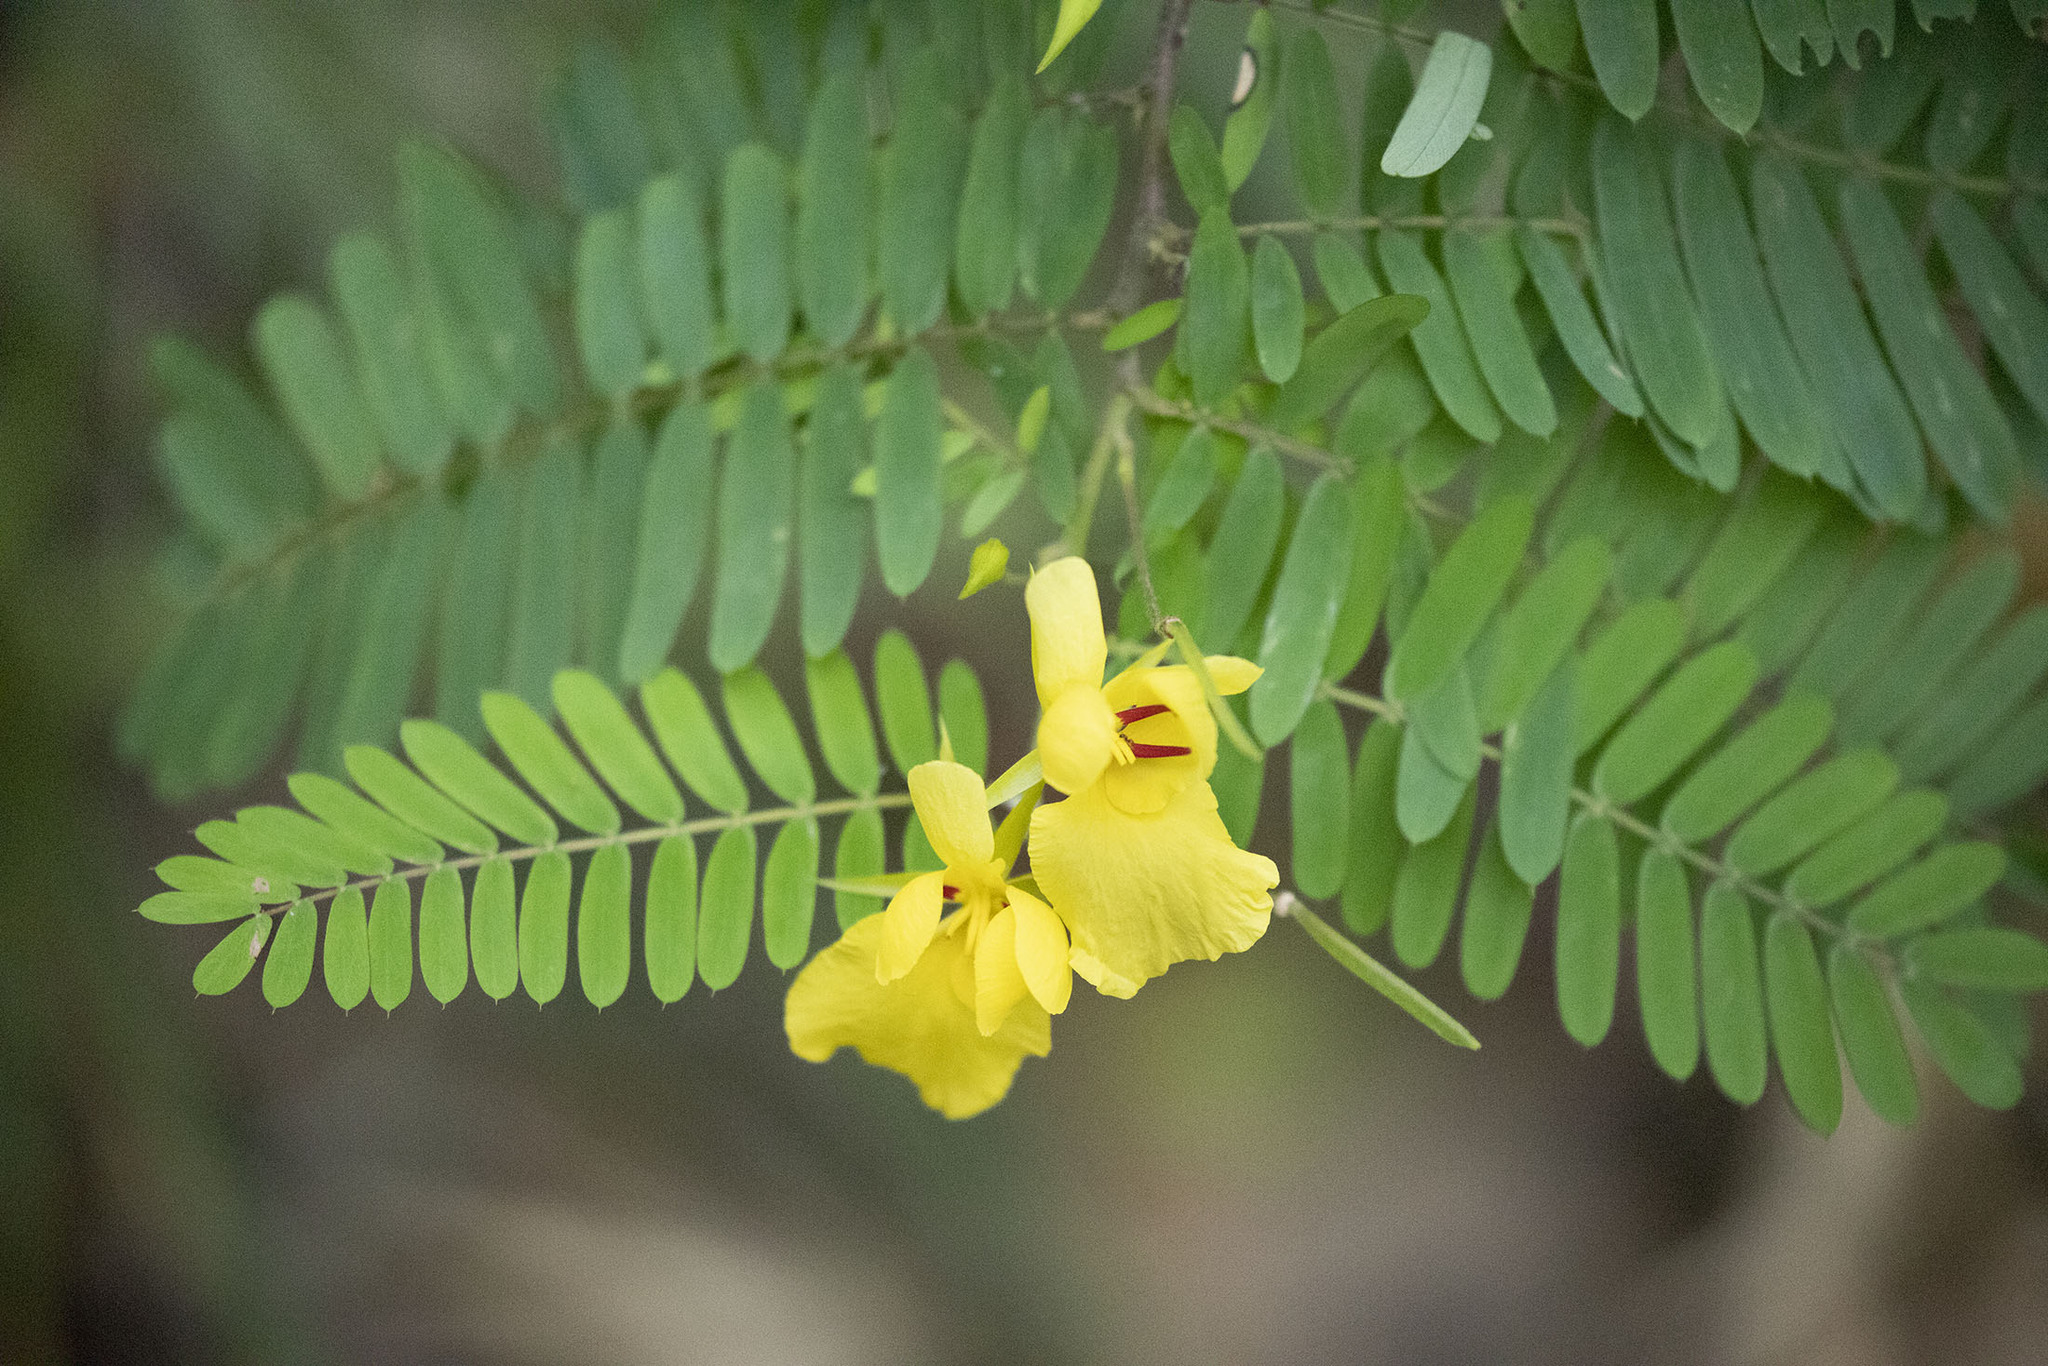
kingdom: Plantae
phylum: Tracheophyta
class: Magnoliopsida
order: Fabales
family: Fabaceae
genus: Chamaecrista
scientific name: Chamaecrista glandulosa
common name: Wild peas
